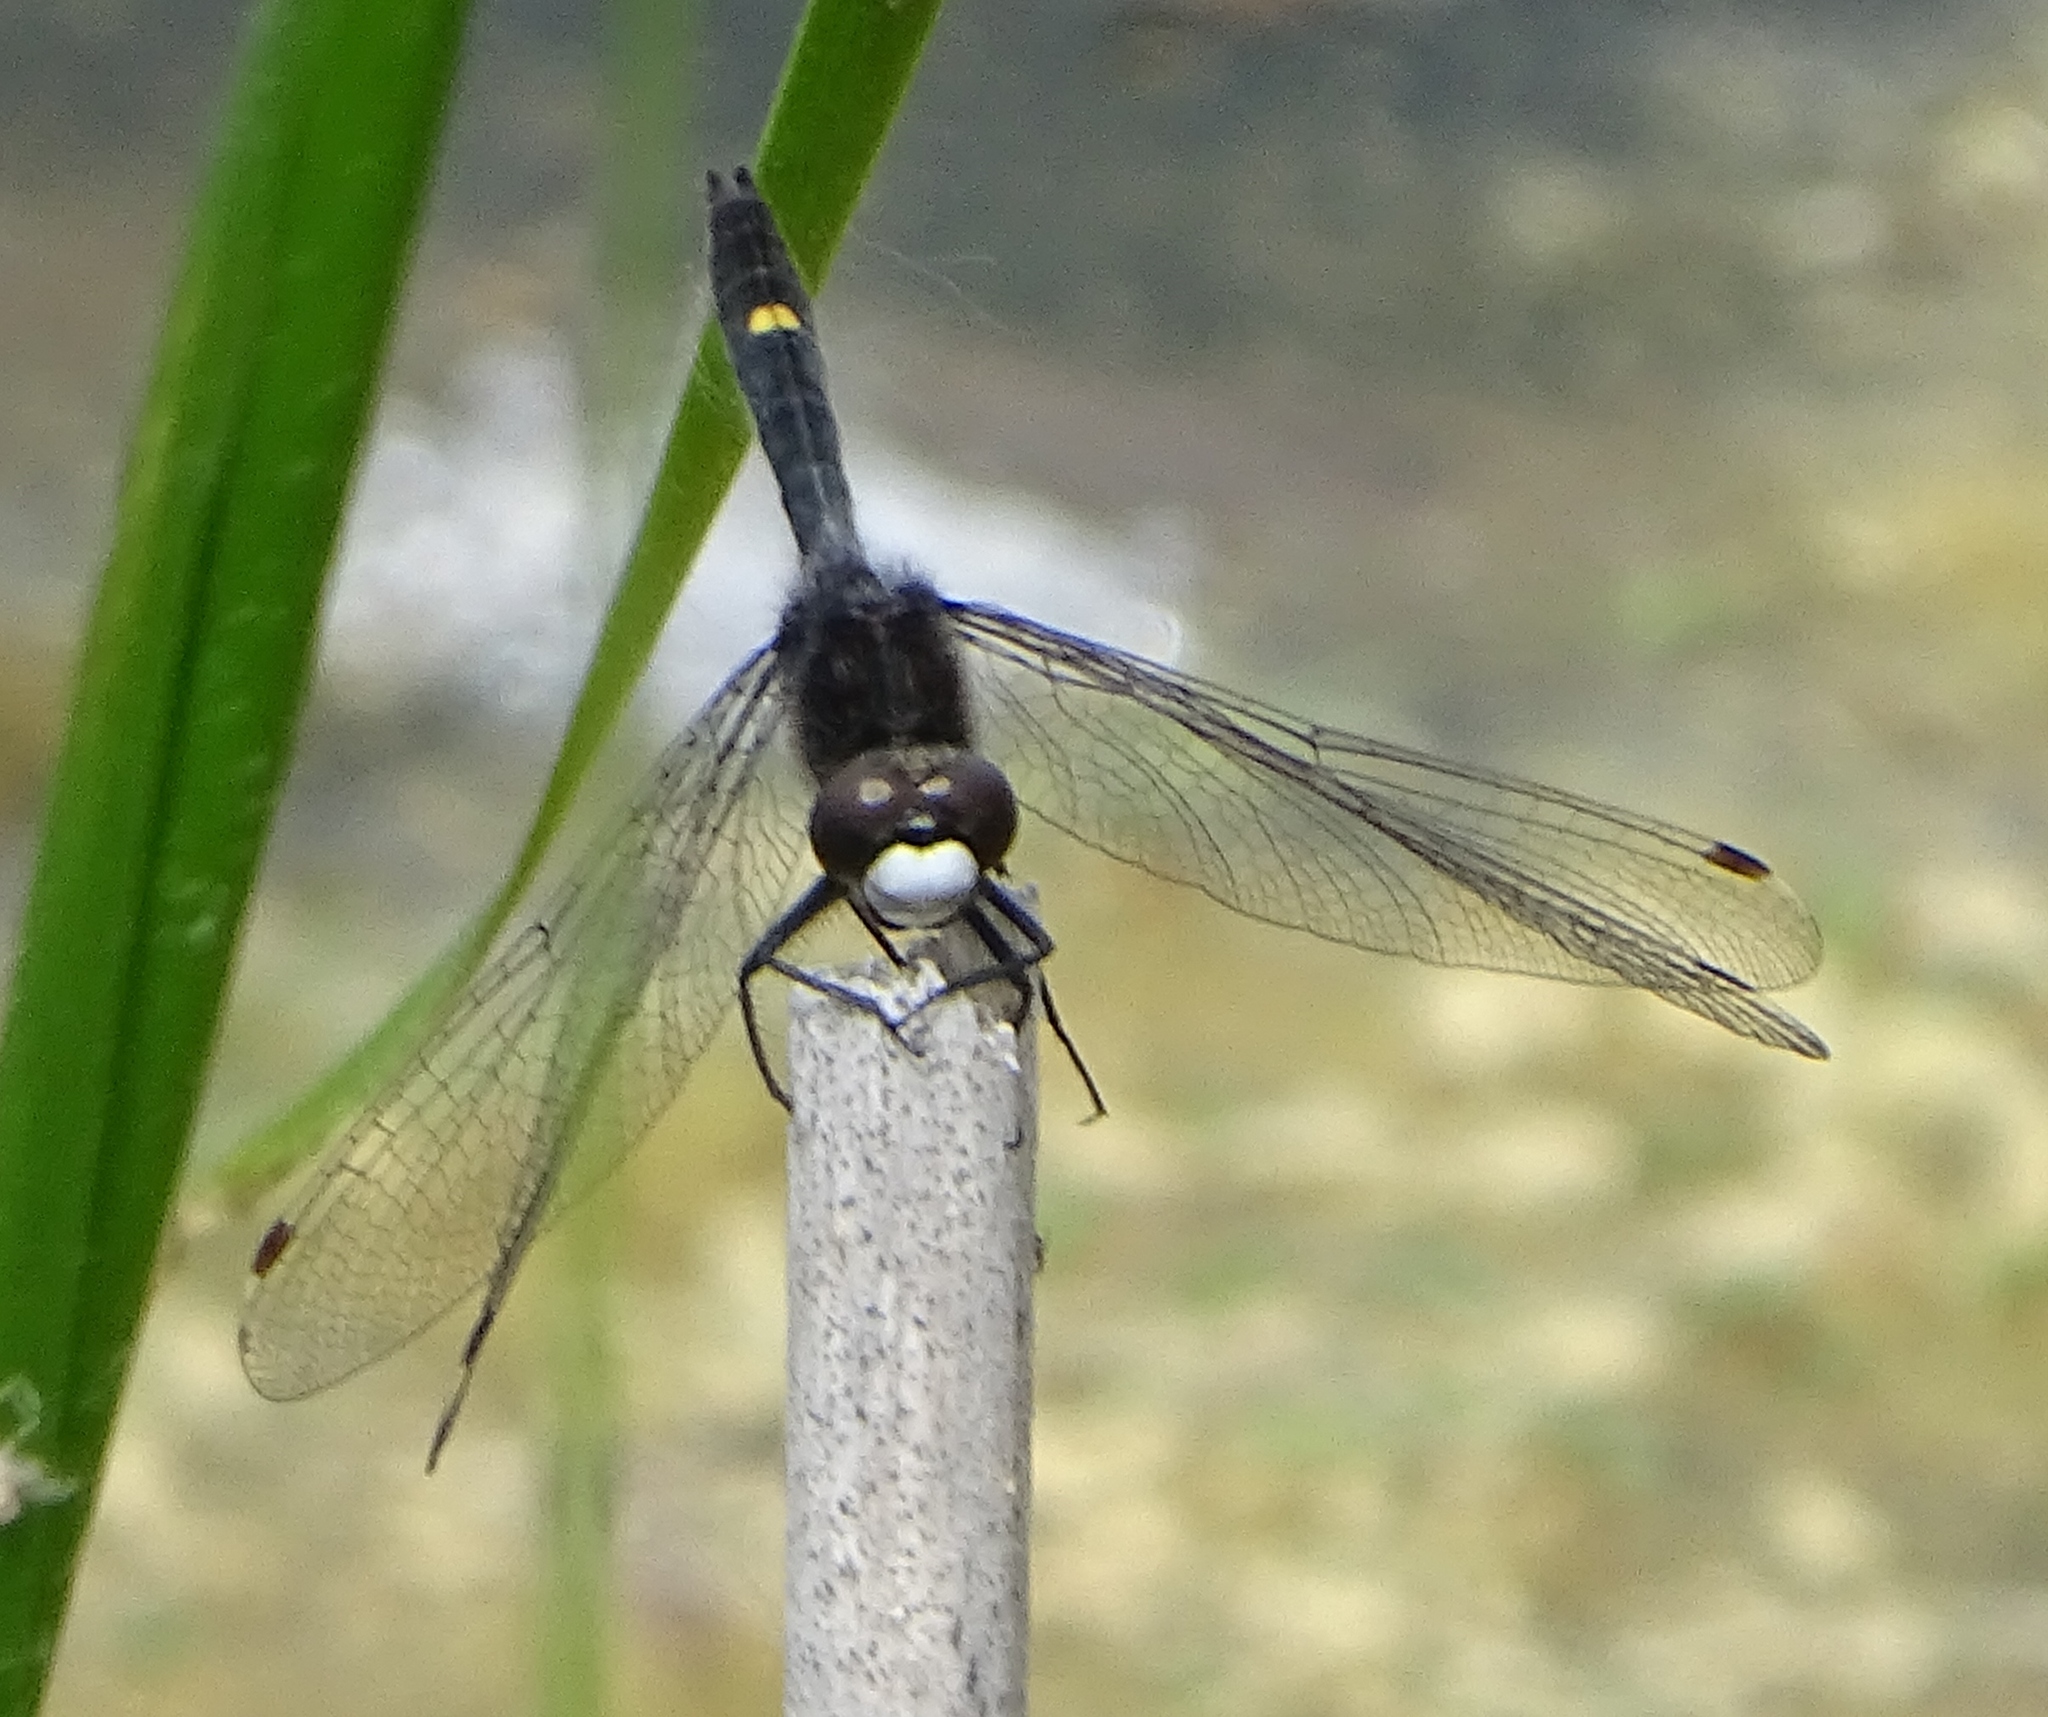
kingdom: Animalia
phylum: Arthropoda
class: Insecta
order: Odonata
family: Libellulidae
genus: Leucorrhinia
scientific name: Leucorrhinia intacta
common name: Dot-tailed whiteface
